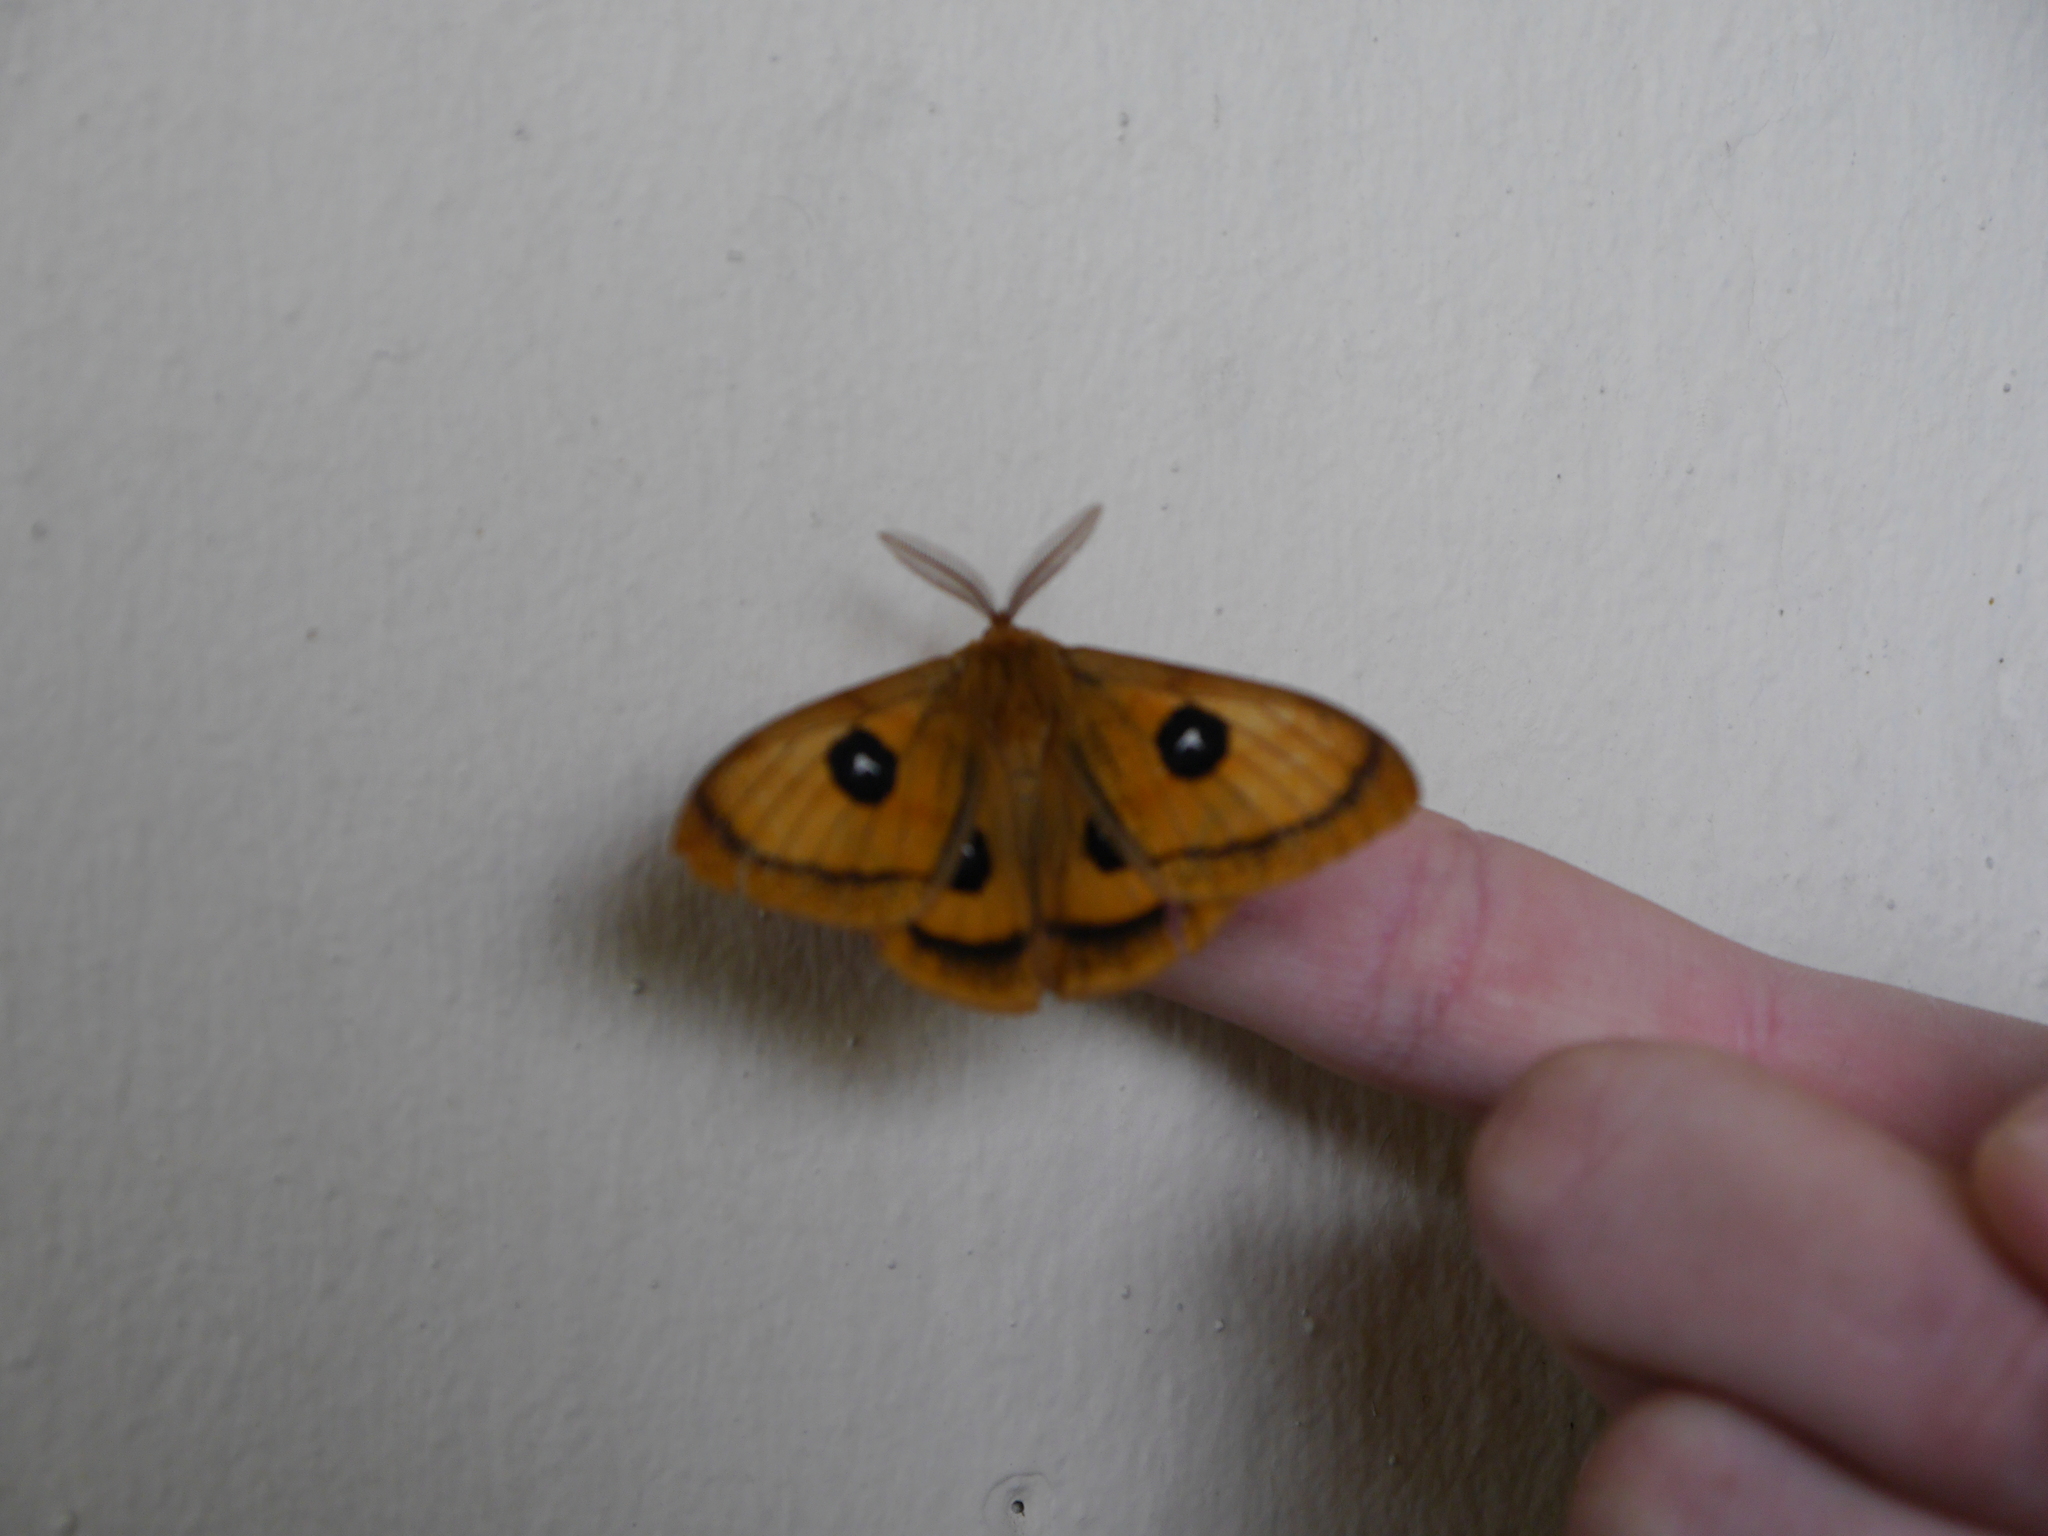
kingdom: Animalia
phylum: Arthropoda
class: Insecta
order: Lepidoptera
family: Saturniidae
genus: Aglia
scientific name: Aglia tau
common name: Tau emperor
